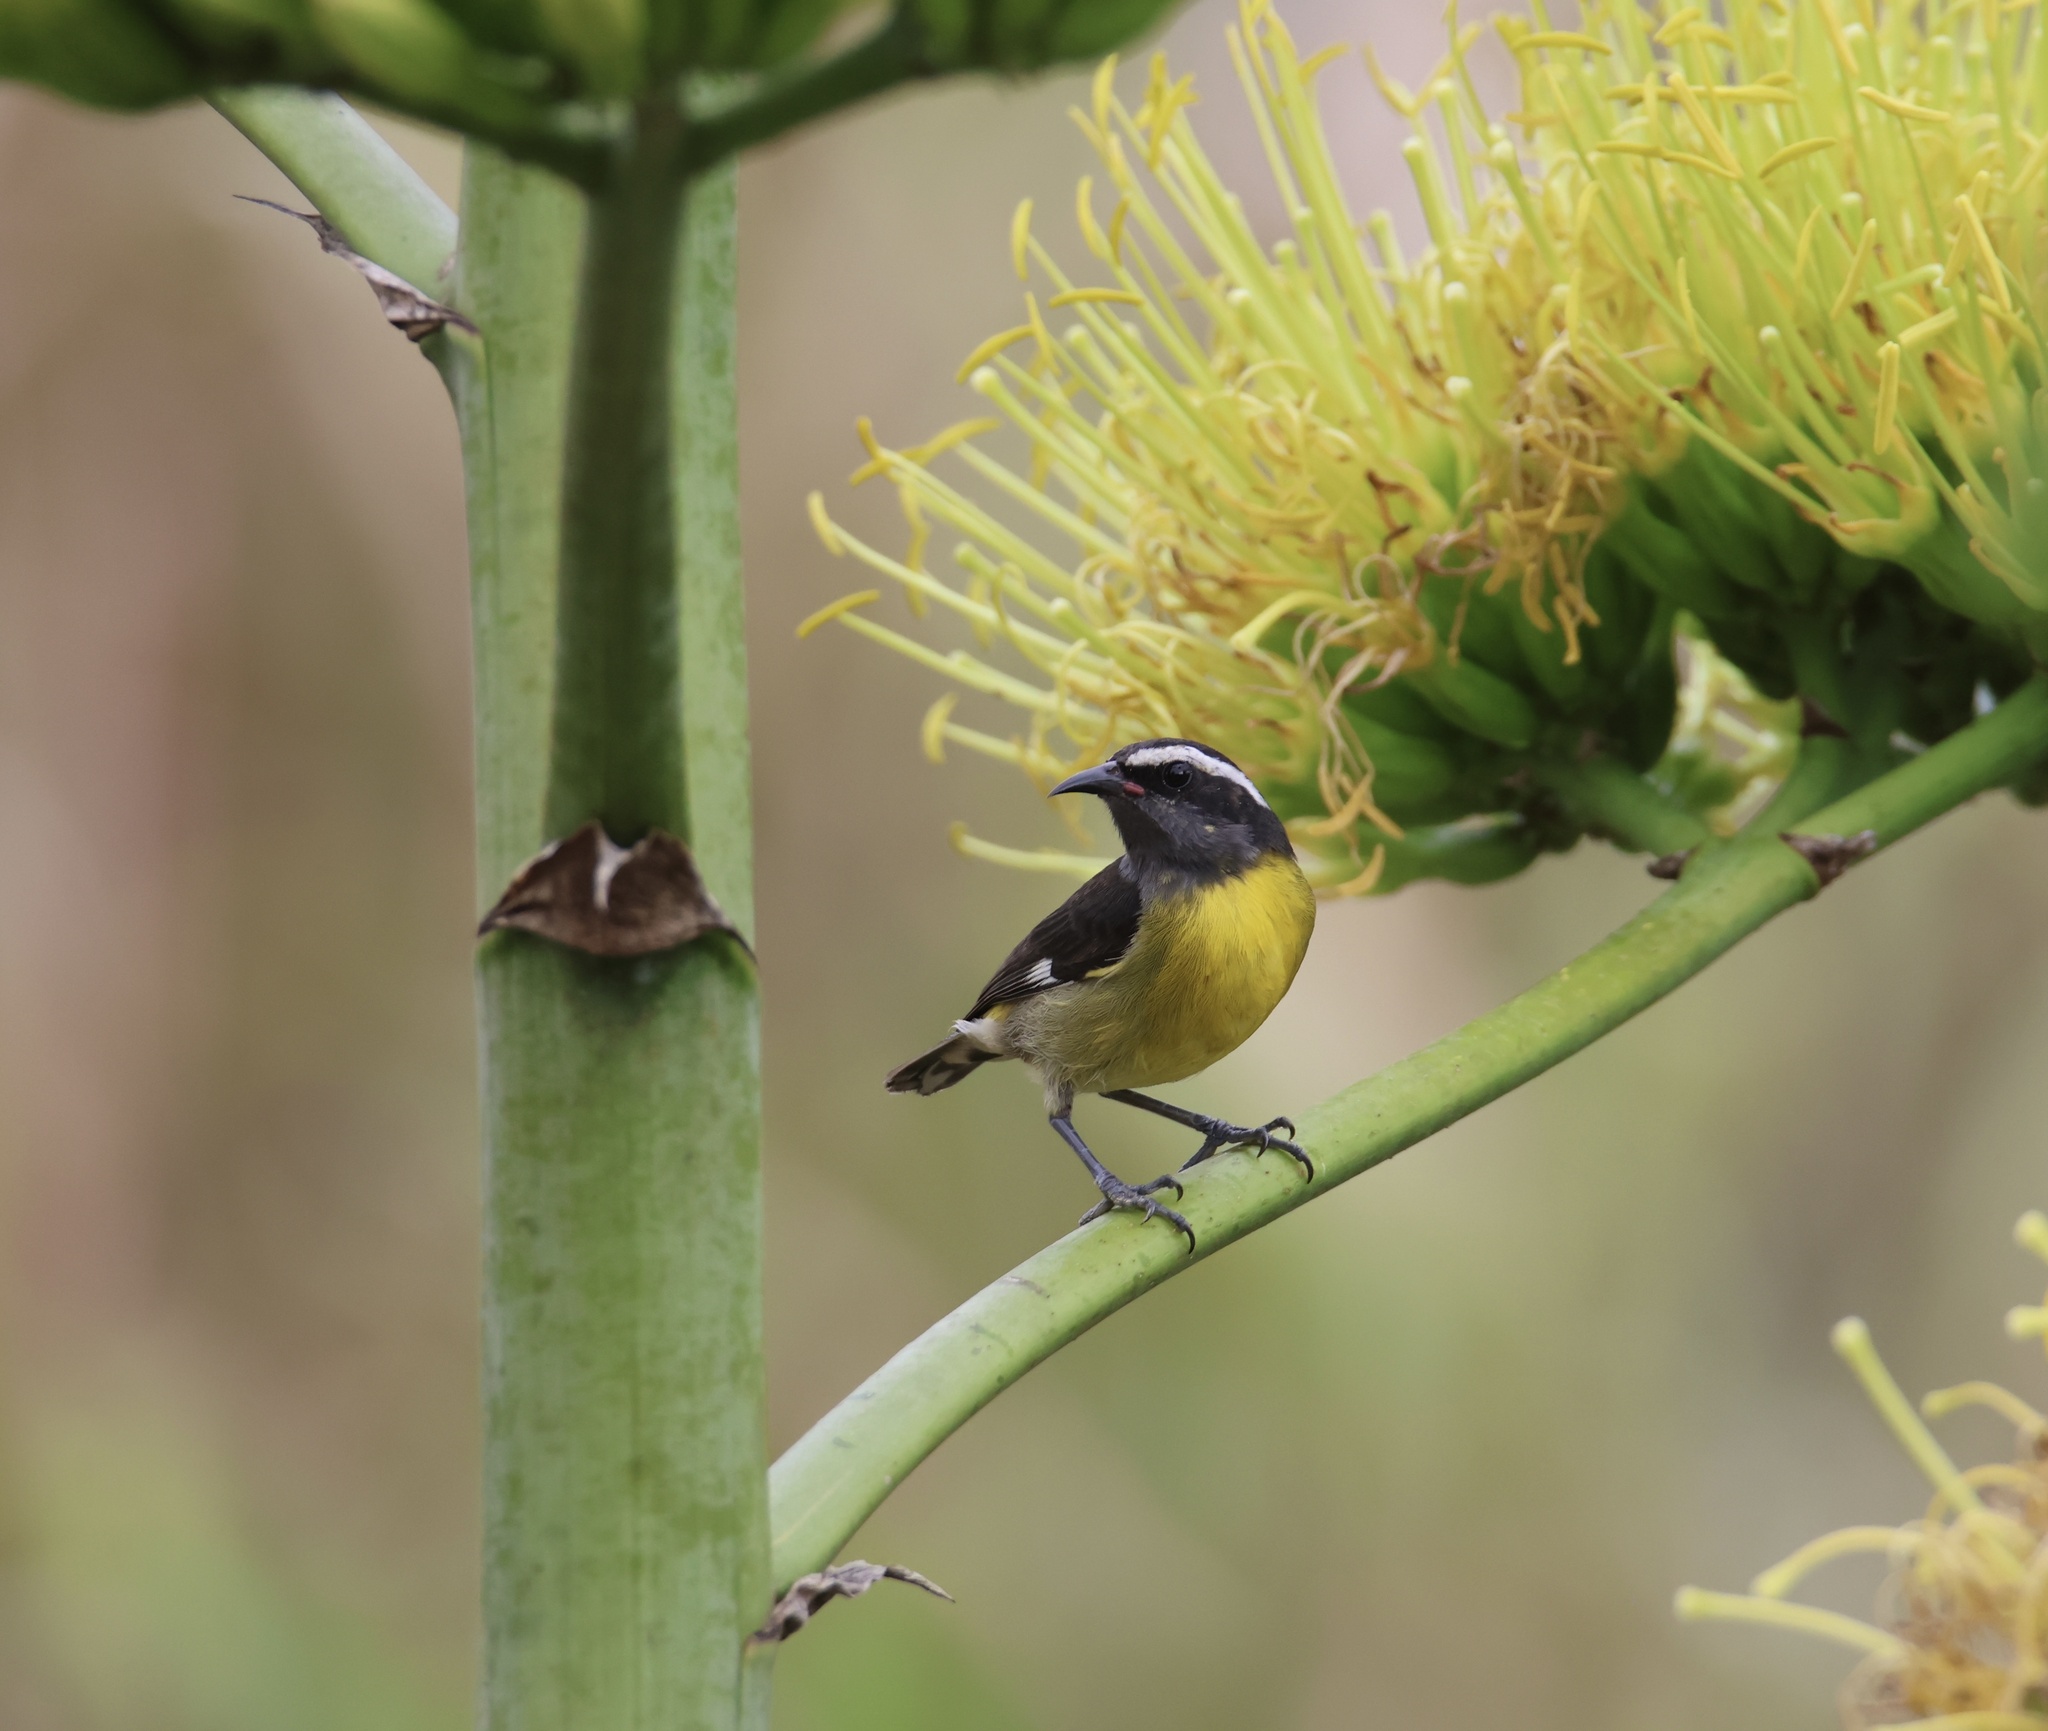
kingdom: Animalia
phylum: Chordata
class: Aves
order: Passeriformes
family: Thraupidae
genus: Coereba
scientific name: Coereba flaveola
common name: Bananaquit
